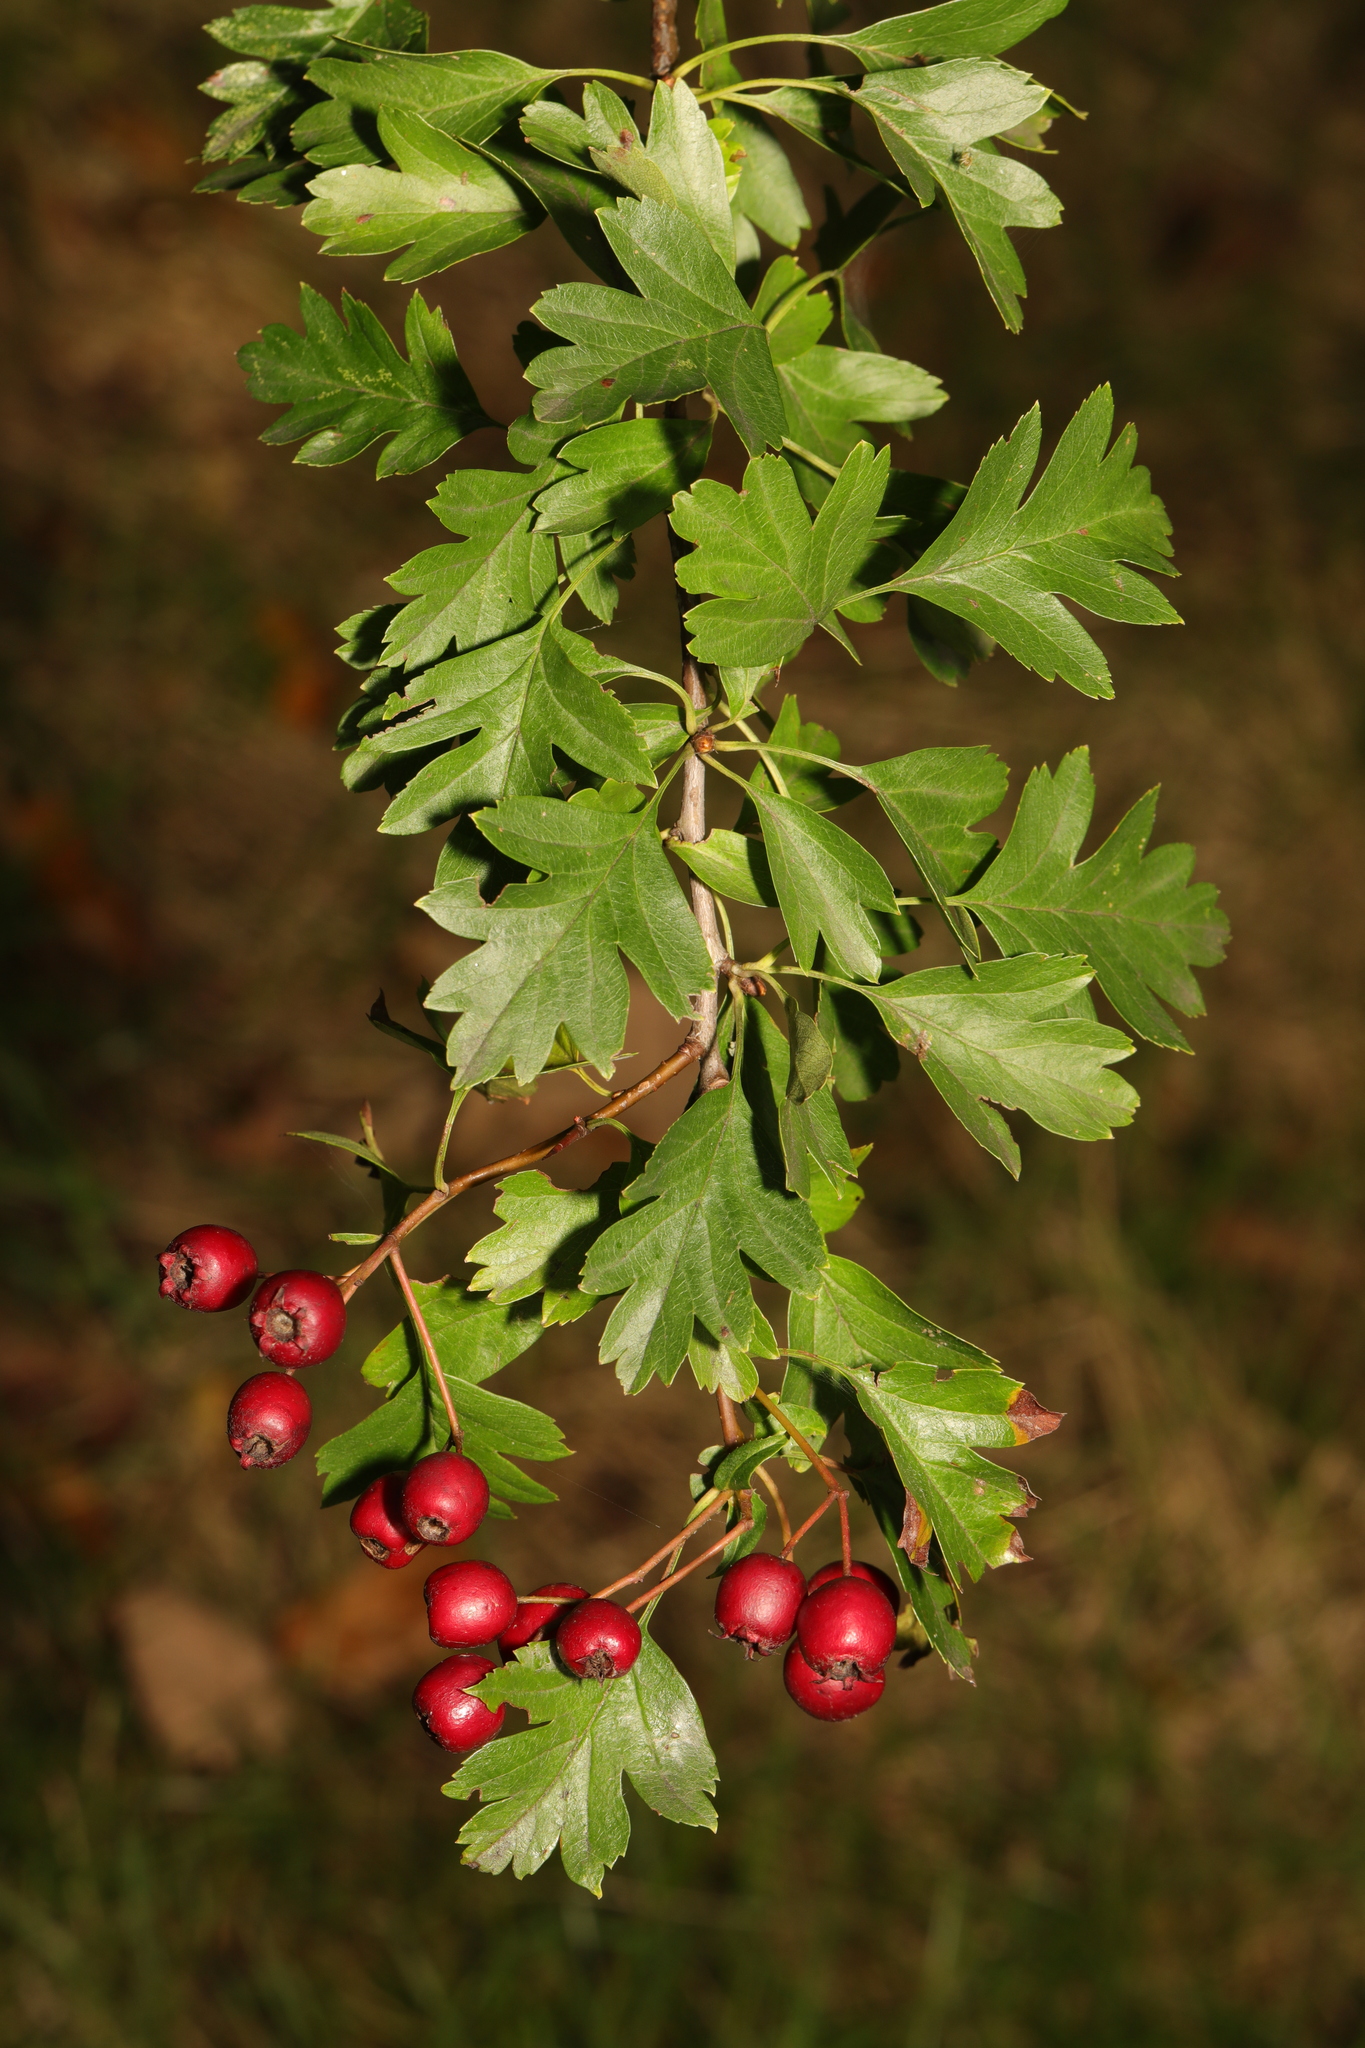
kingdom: Plantae
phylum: Tracheophyta
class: Magnoliopsida
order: Rosales
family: Rosaceae
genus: Crataegus
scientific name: Crataegus monogyna
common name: Hawthorn
